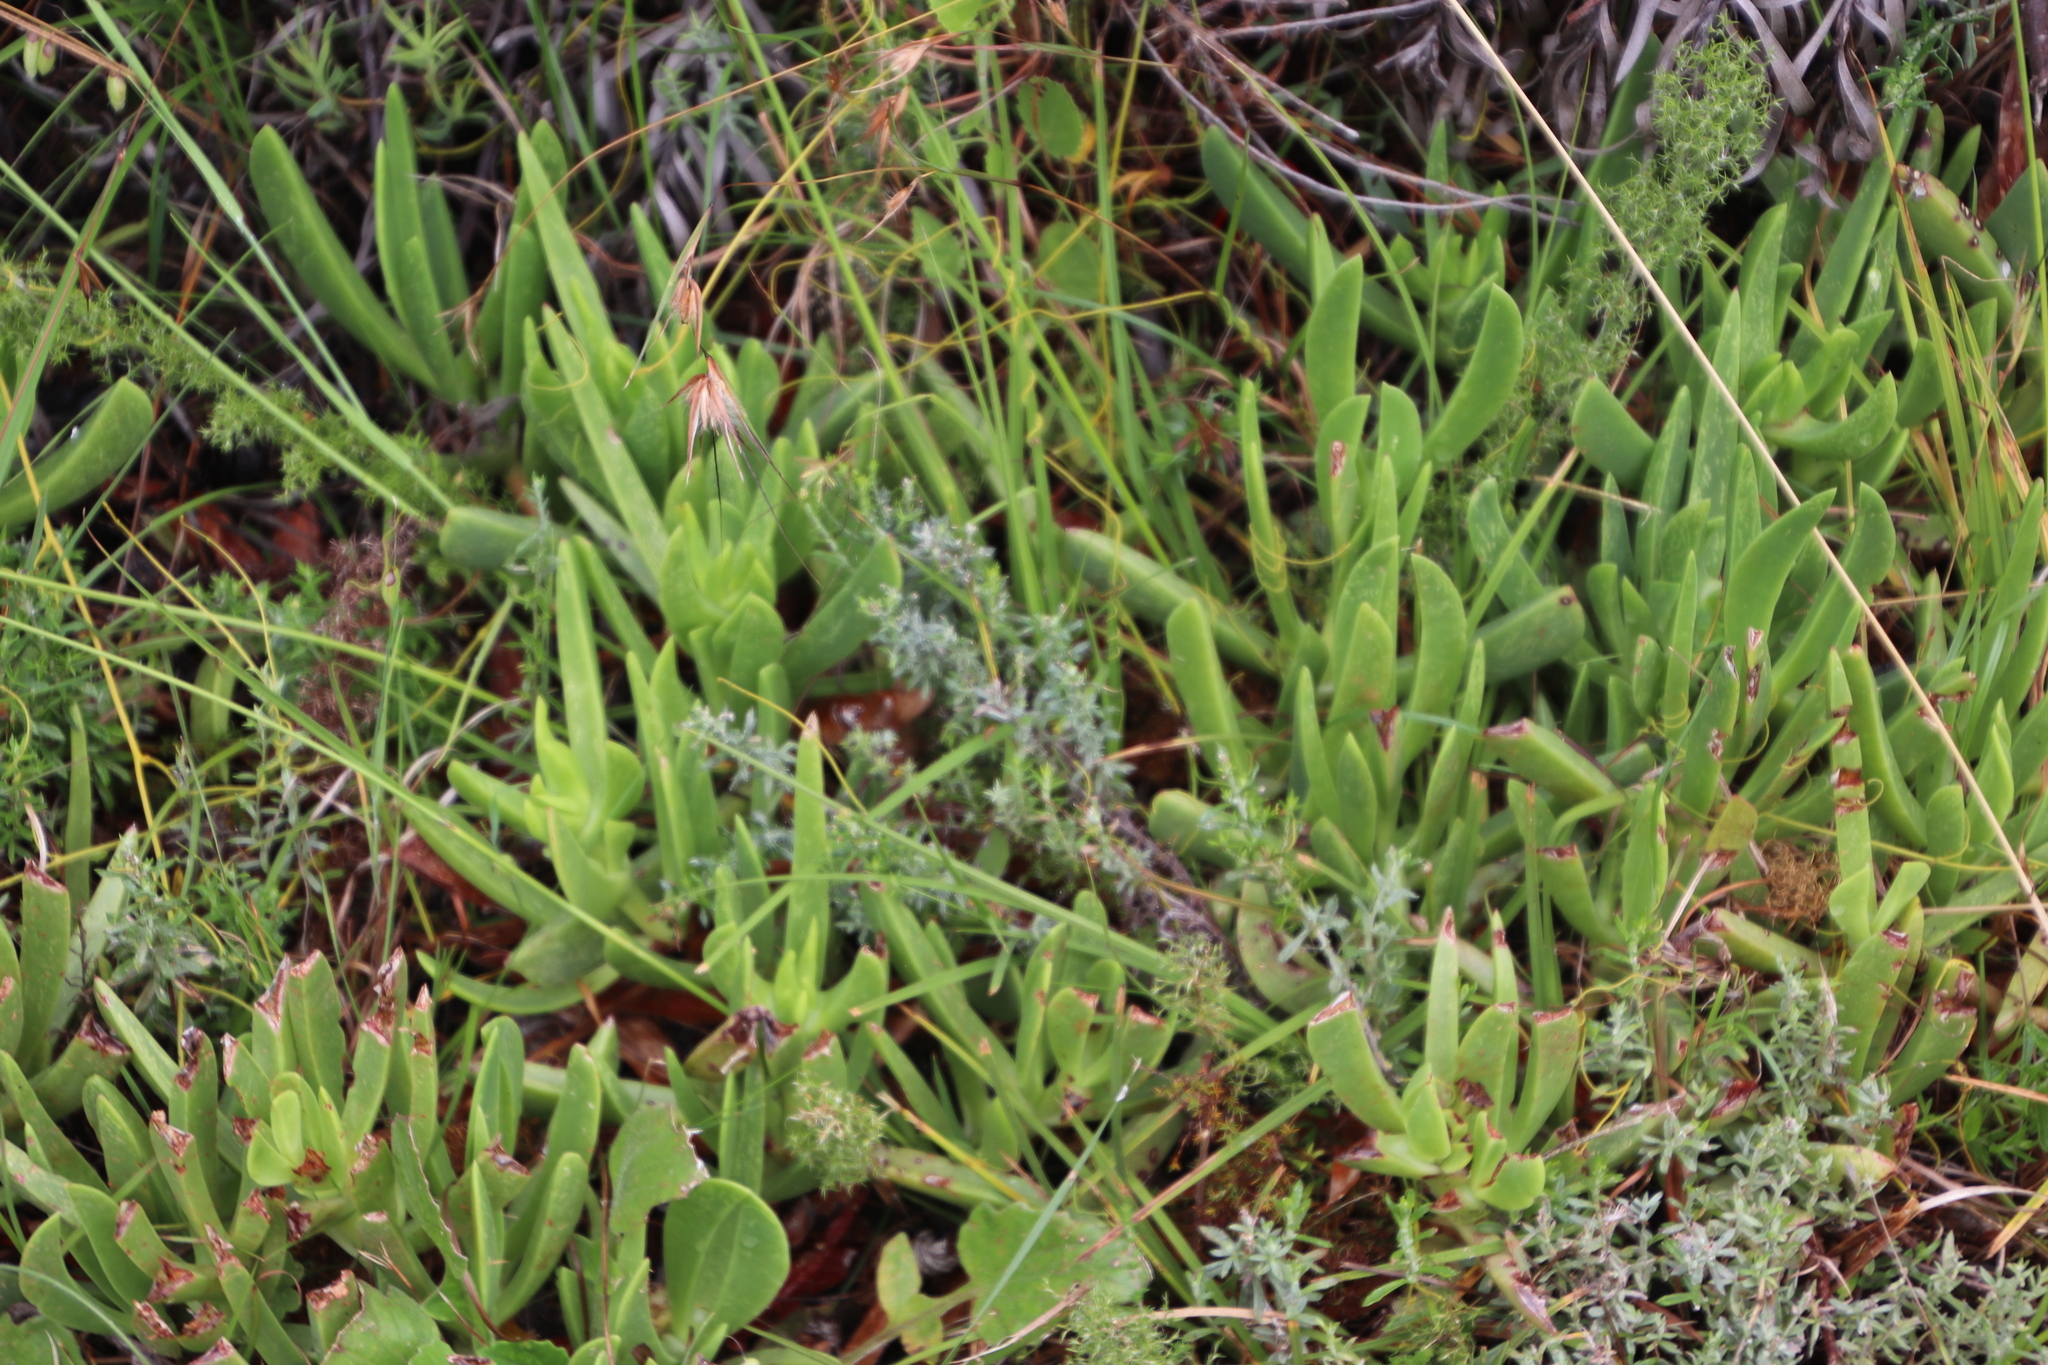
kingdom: Plantae
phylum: Tracheophyta
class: Liliopsida
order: Poales
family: Poaceae
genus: Themeda
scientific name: Themeda triandra
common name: Kangaroo grass
